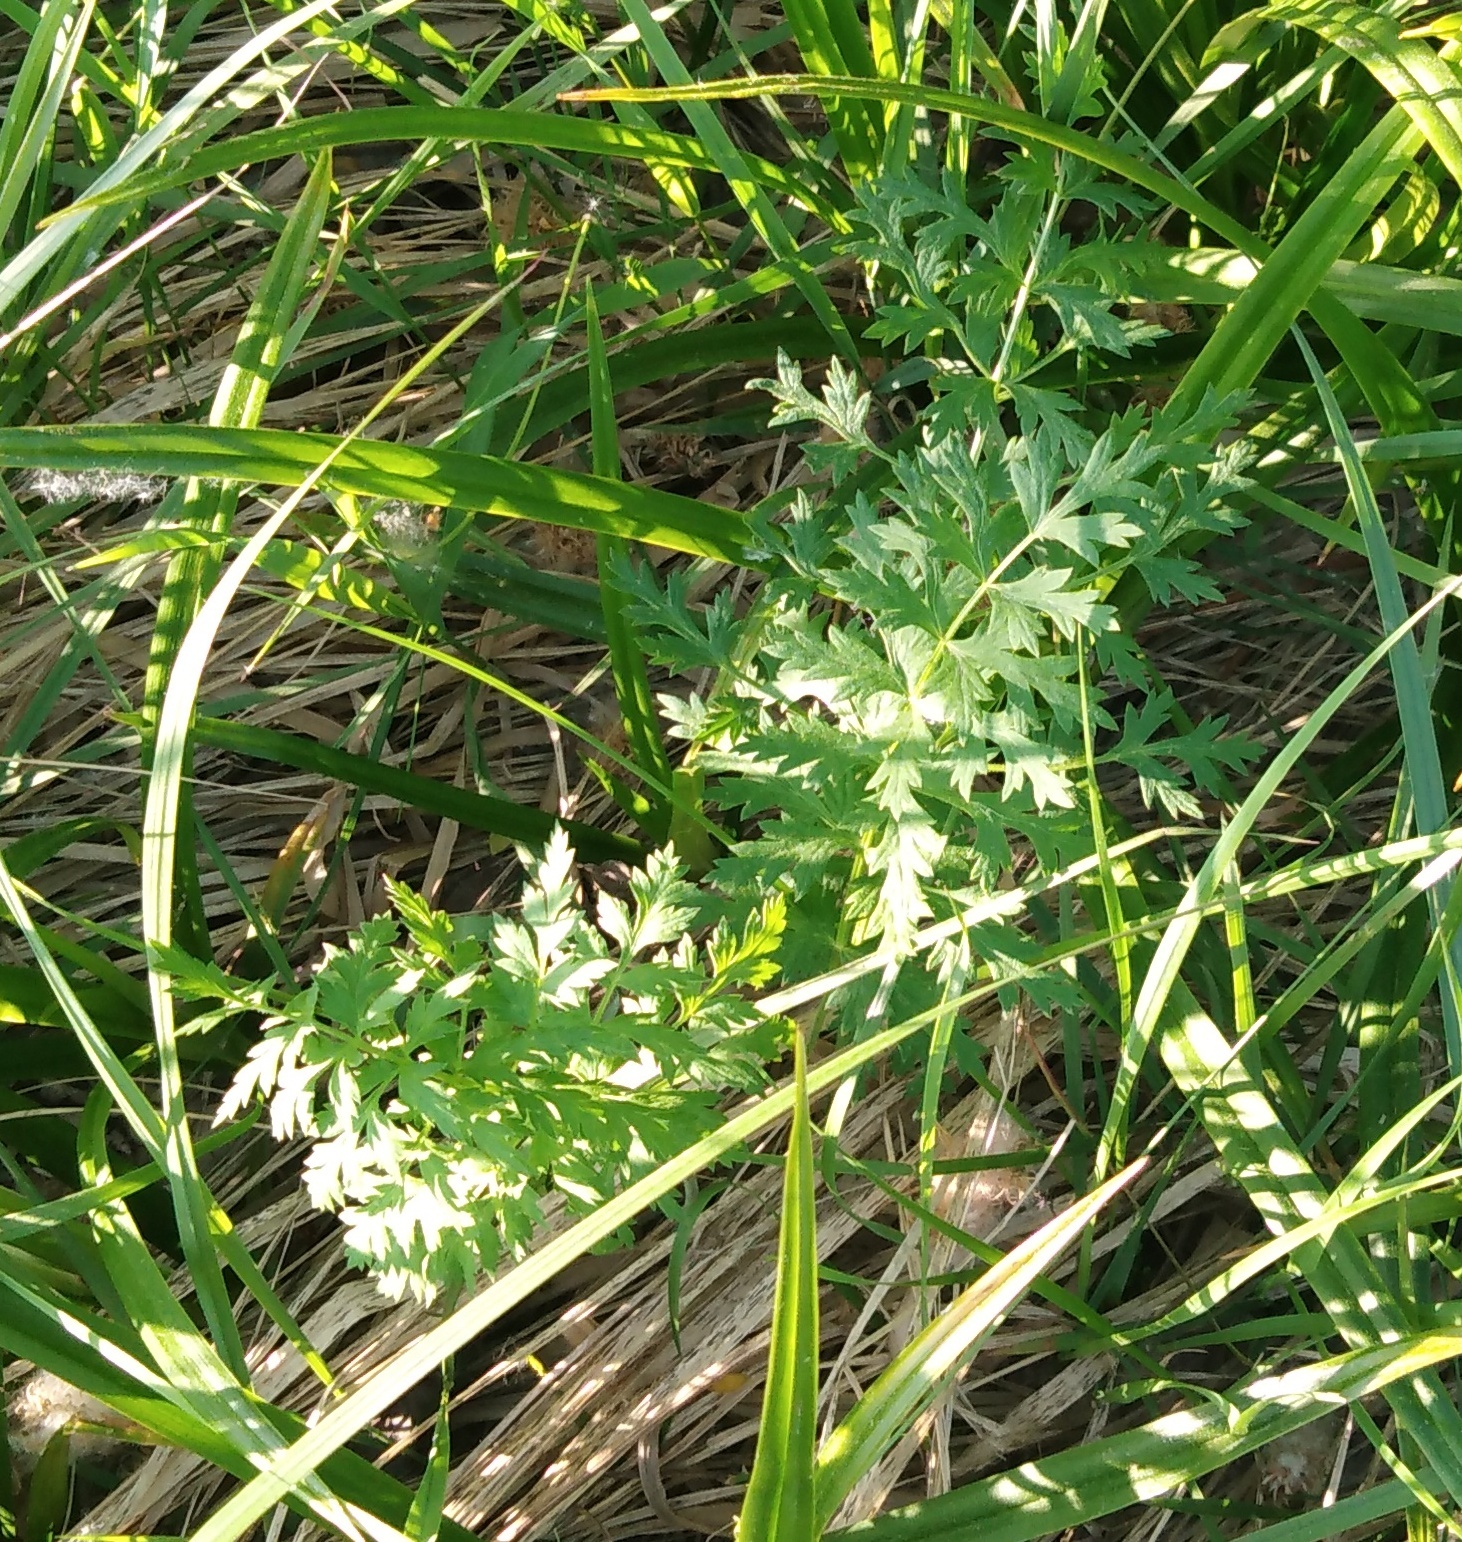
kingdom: Plantae
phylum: Tracheophyta
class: Magnoliopsida
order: Apiales
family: Apiaceae
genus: Seseli
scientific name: Seseli libanotis
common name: Mooncarrot
